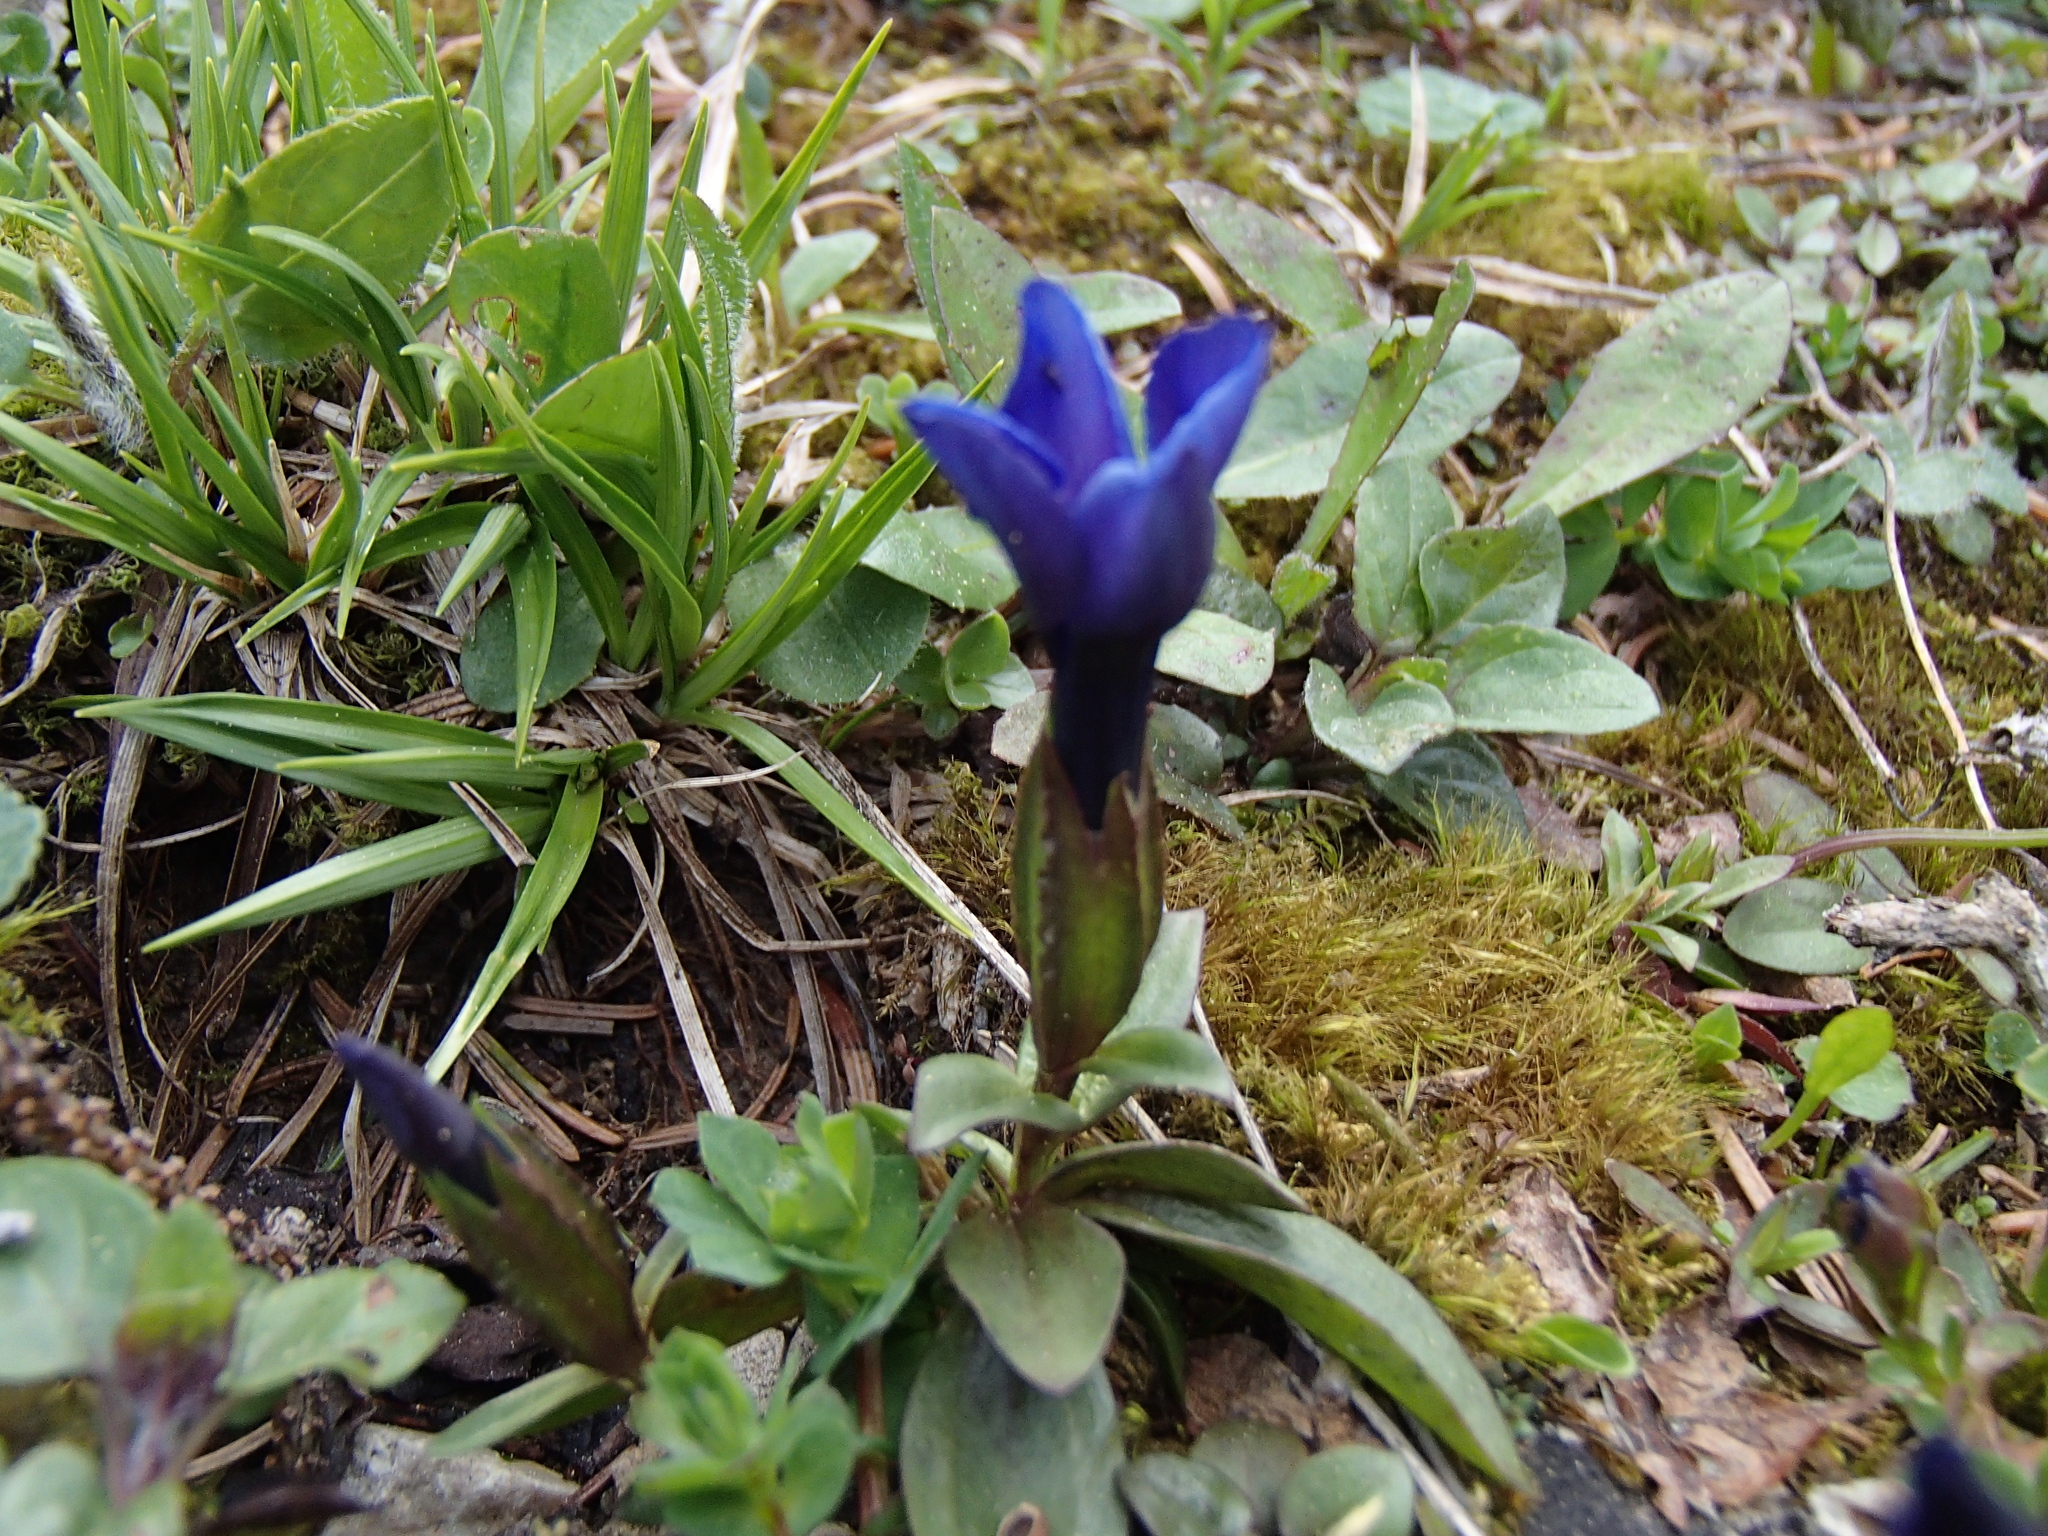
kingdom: Plantae
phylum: Tracheophyta
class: Magnoliopsida
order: Gentianales
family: Gentianaceae
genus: Gentiana
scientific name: Gentiana verna
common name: Spring gentian
